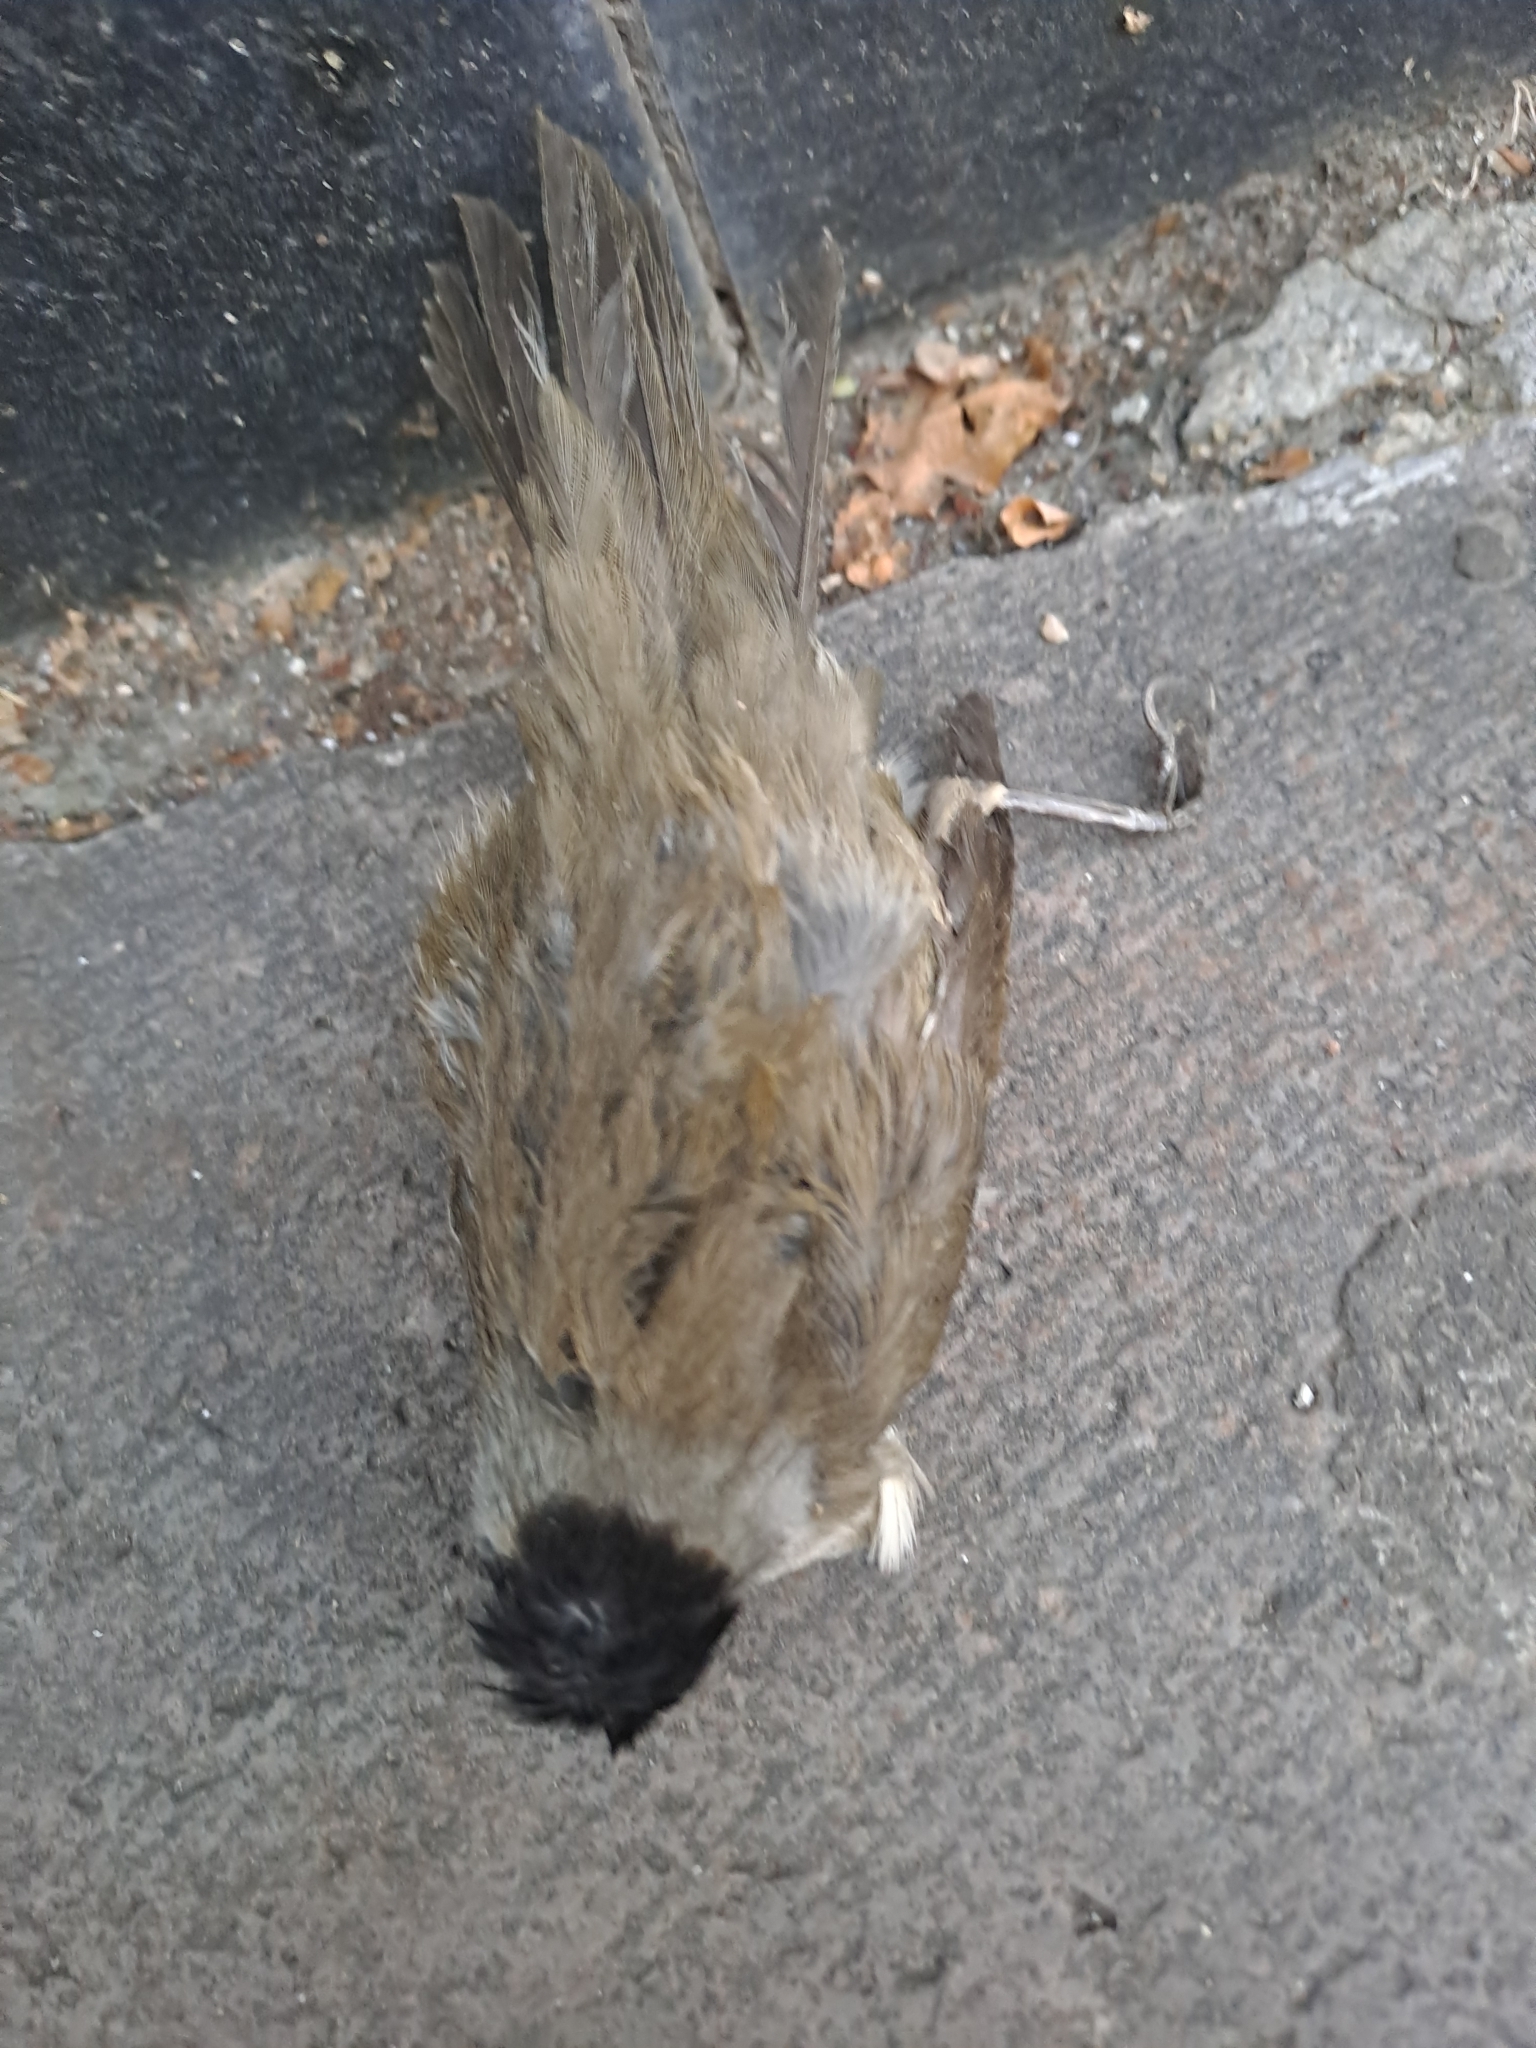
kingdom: Animalia
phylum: Chordata
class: Aves
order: Passeriformes
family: Sylviidae
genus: Sylvia
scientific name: Sylvia atricapilla
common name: Eurasian blackcap
